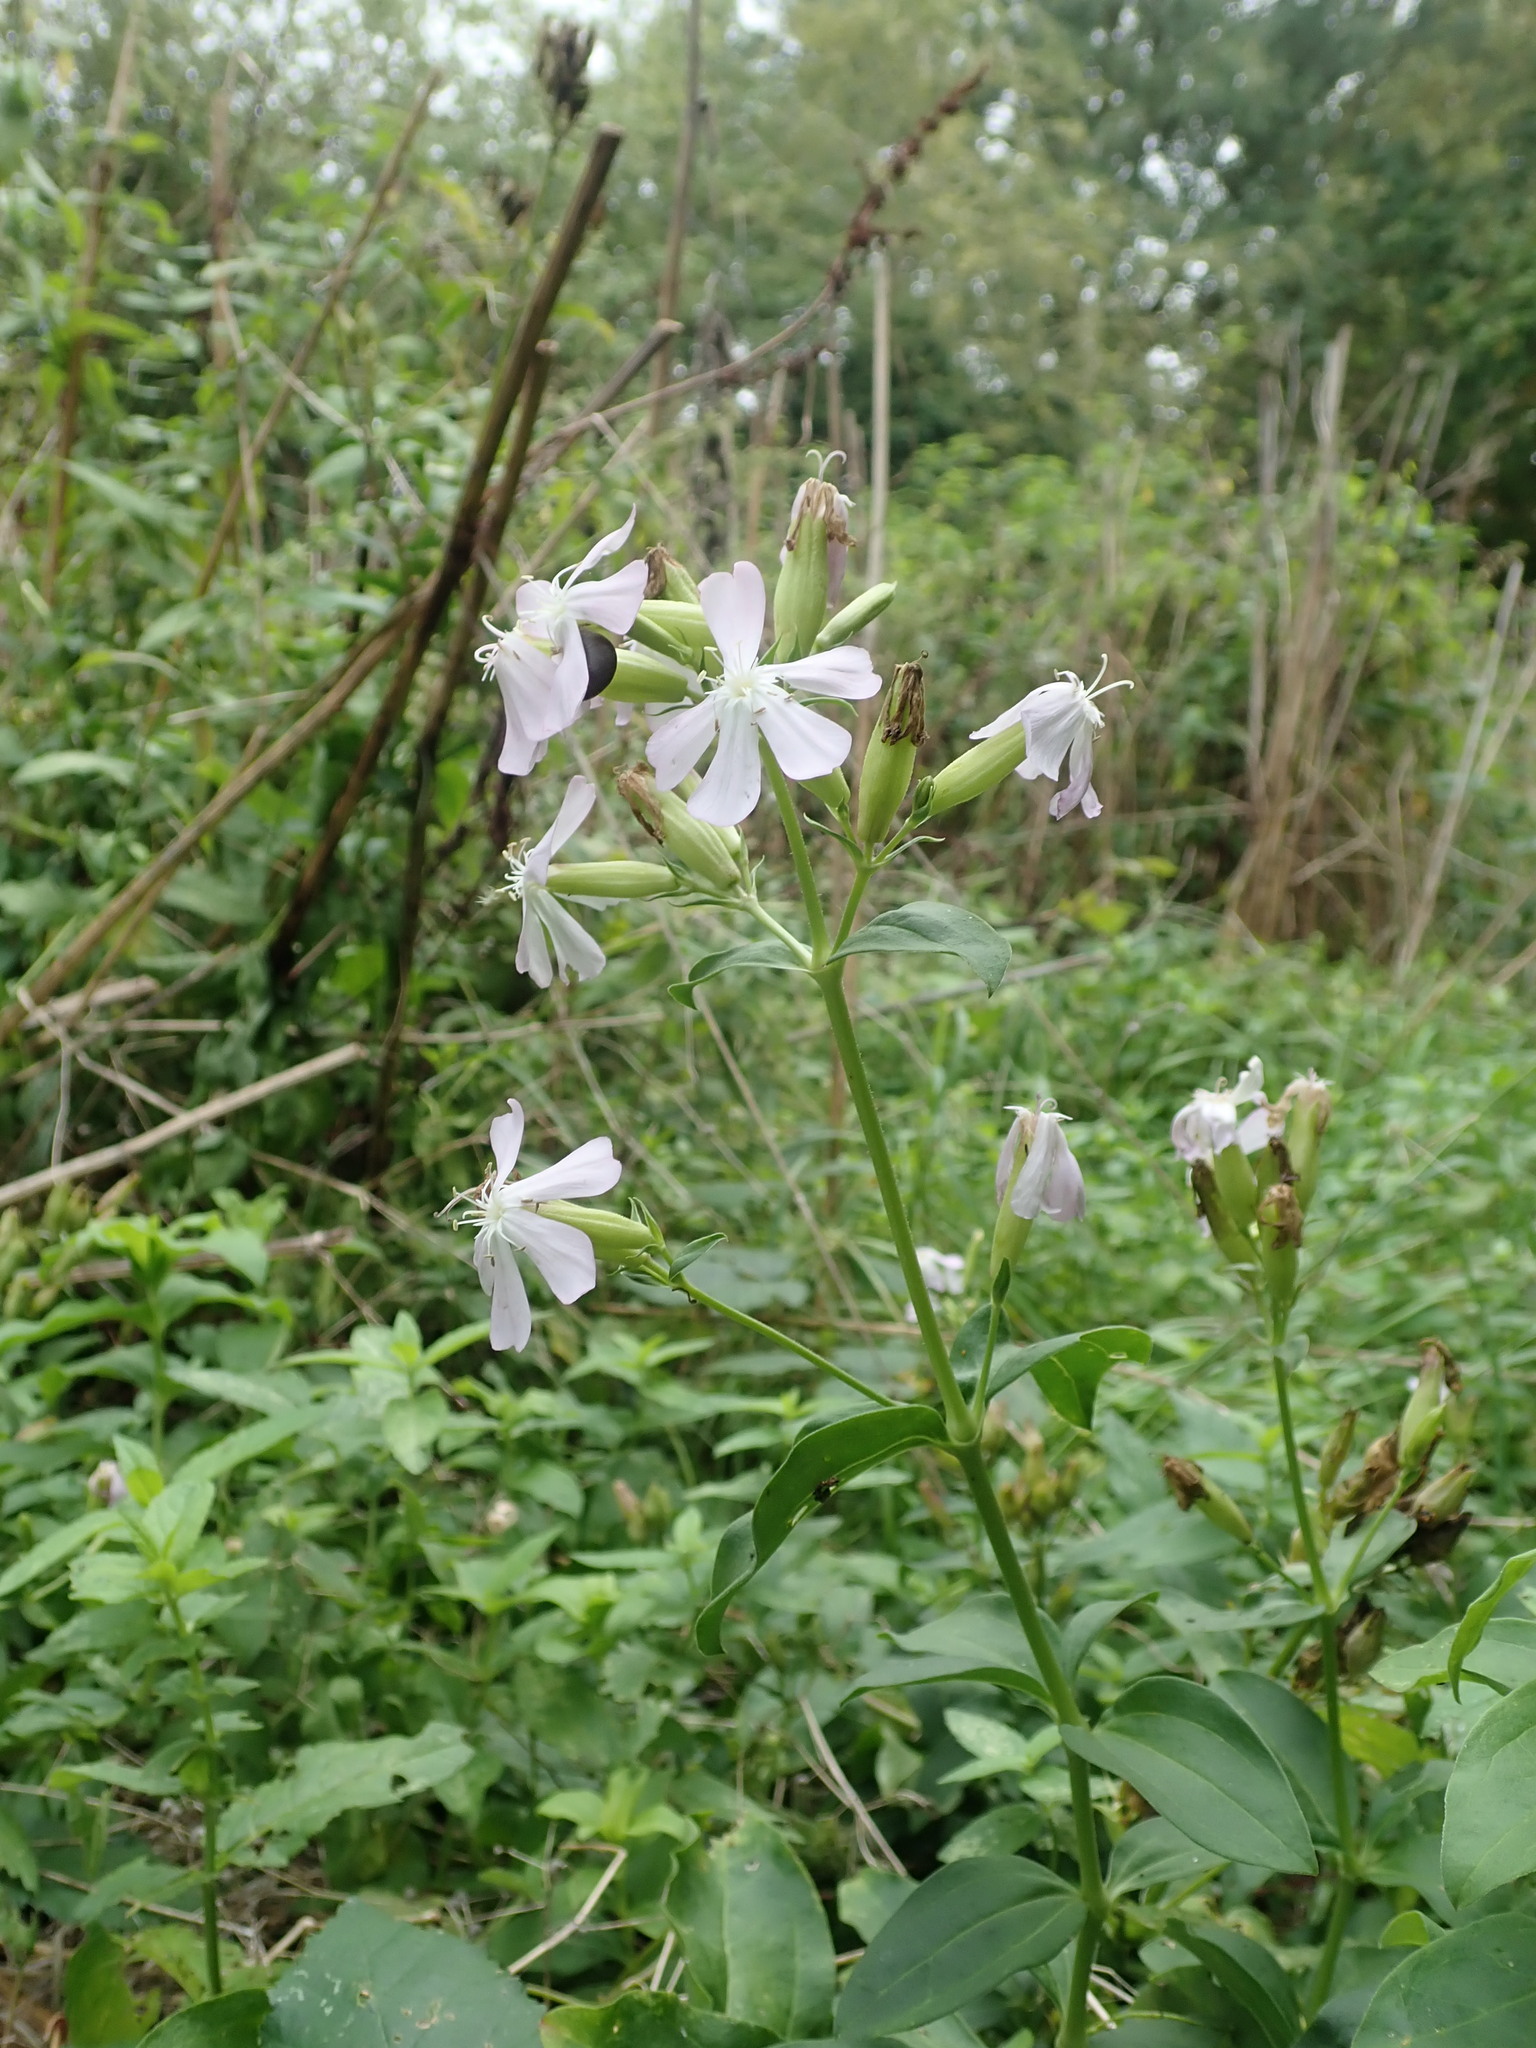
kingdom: Plantae
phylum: Tracheophyta
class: Magnoliopsida
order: Caryophyllales
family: Caryophyllaceae
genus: Saponaria
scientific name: Saponaria officinalis
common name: Soapwort
